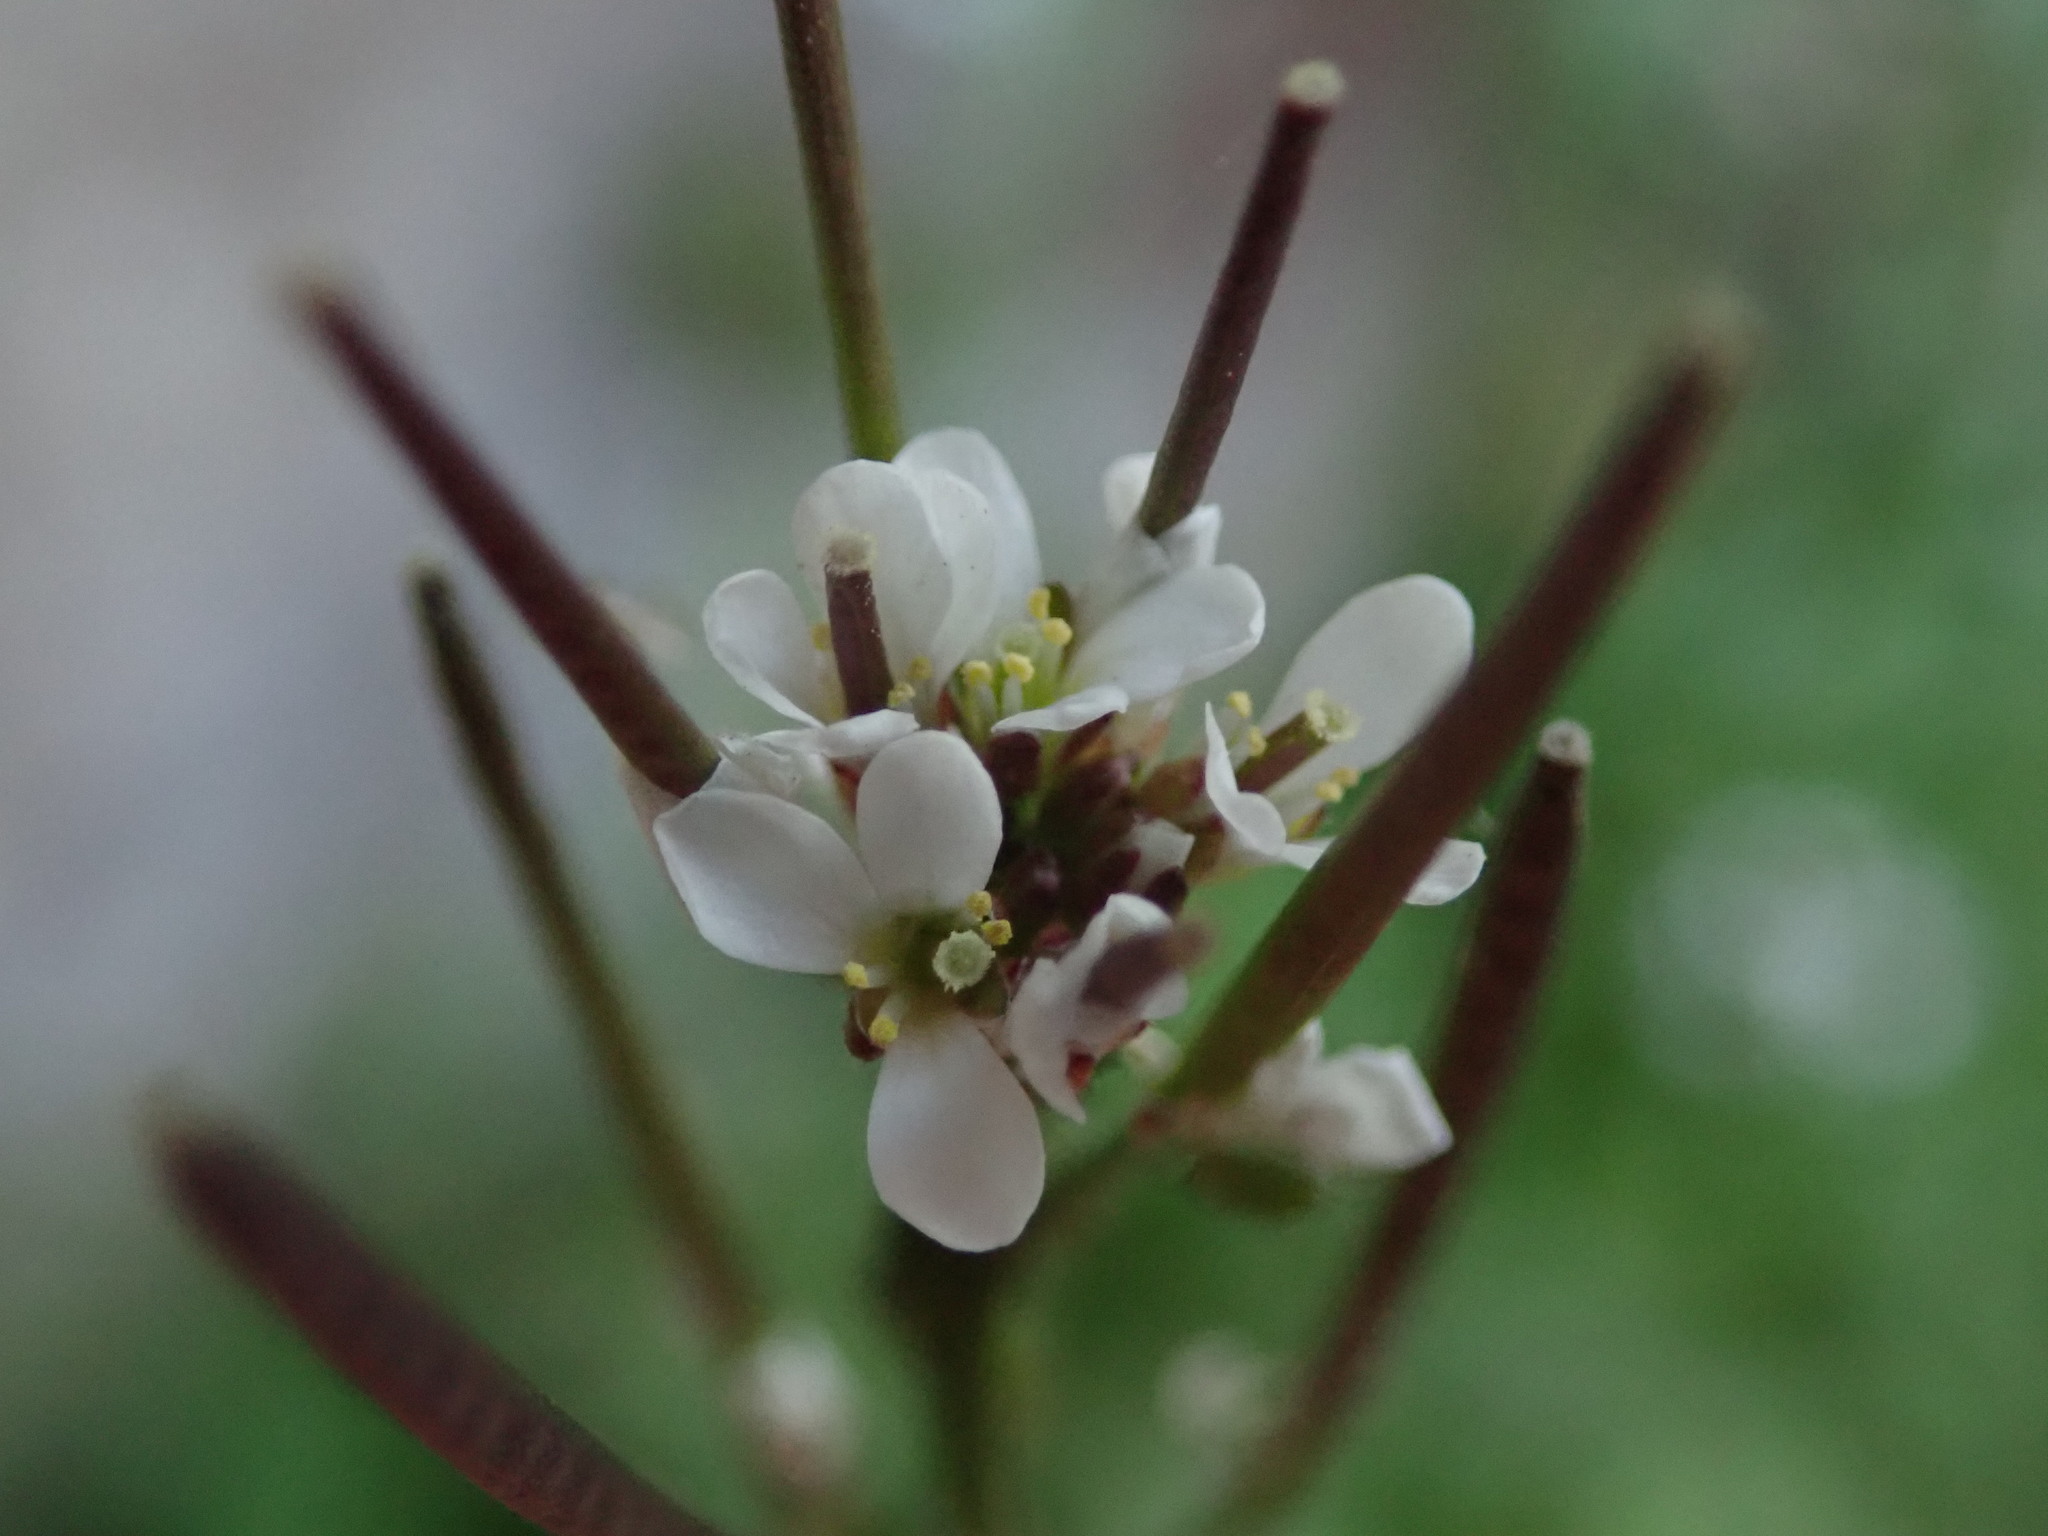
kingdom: Plantae
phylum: Tracheophyta
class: Magnoliopsida
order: Brassicales
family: Brassicaceae
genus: Cardamine
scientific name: Cardamine hirsuta
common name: Hairy bittercress
